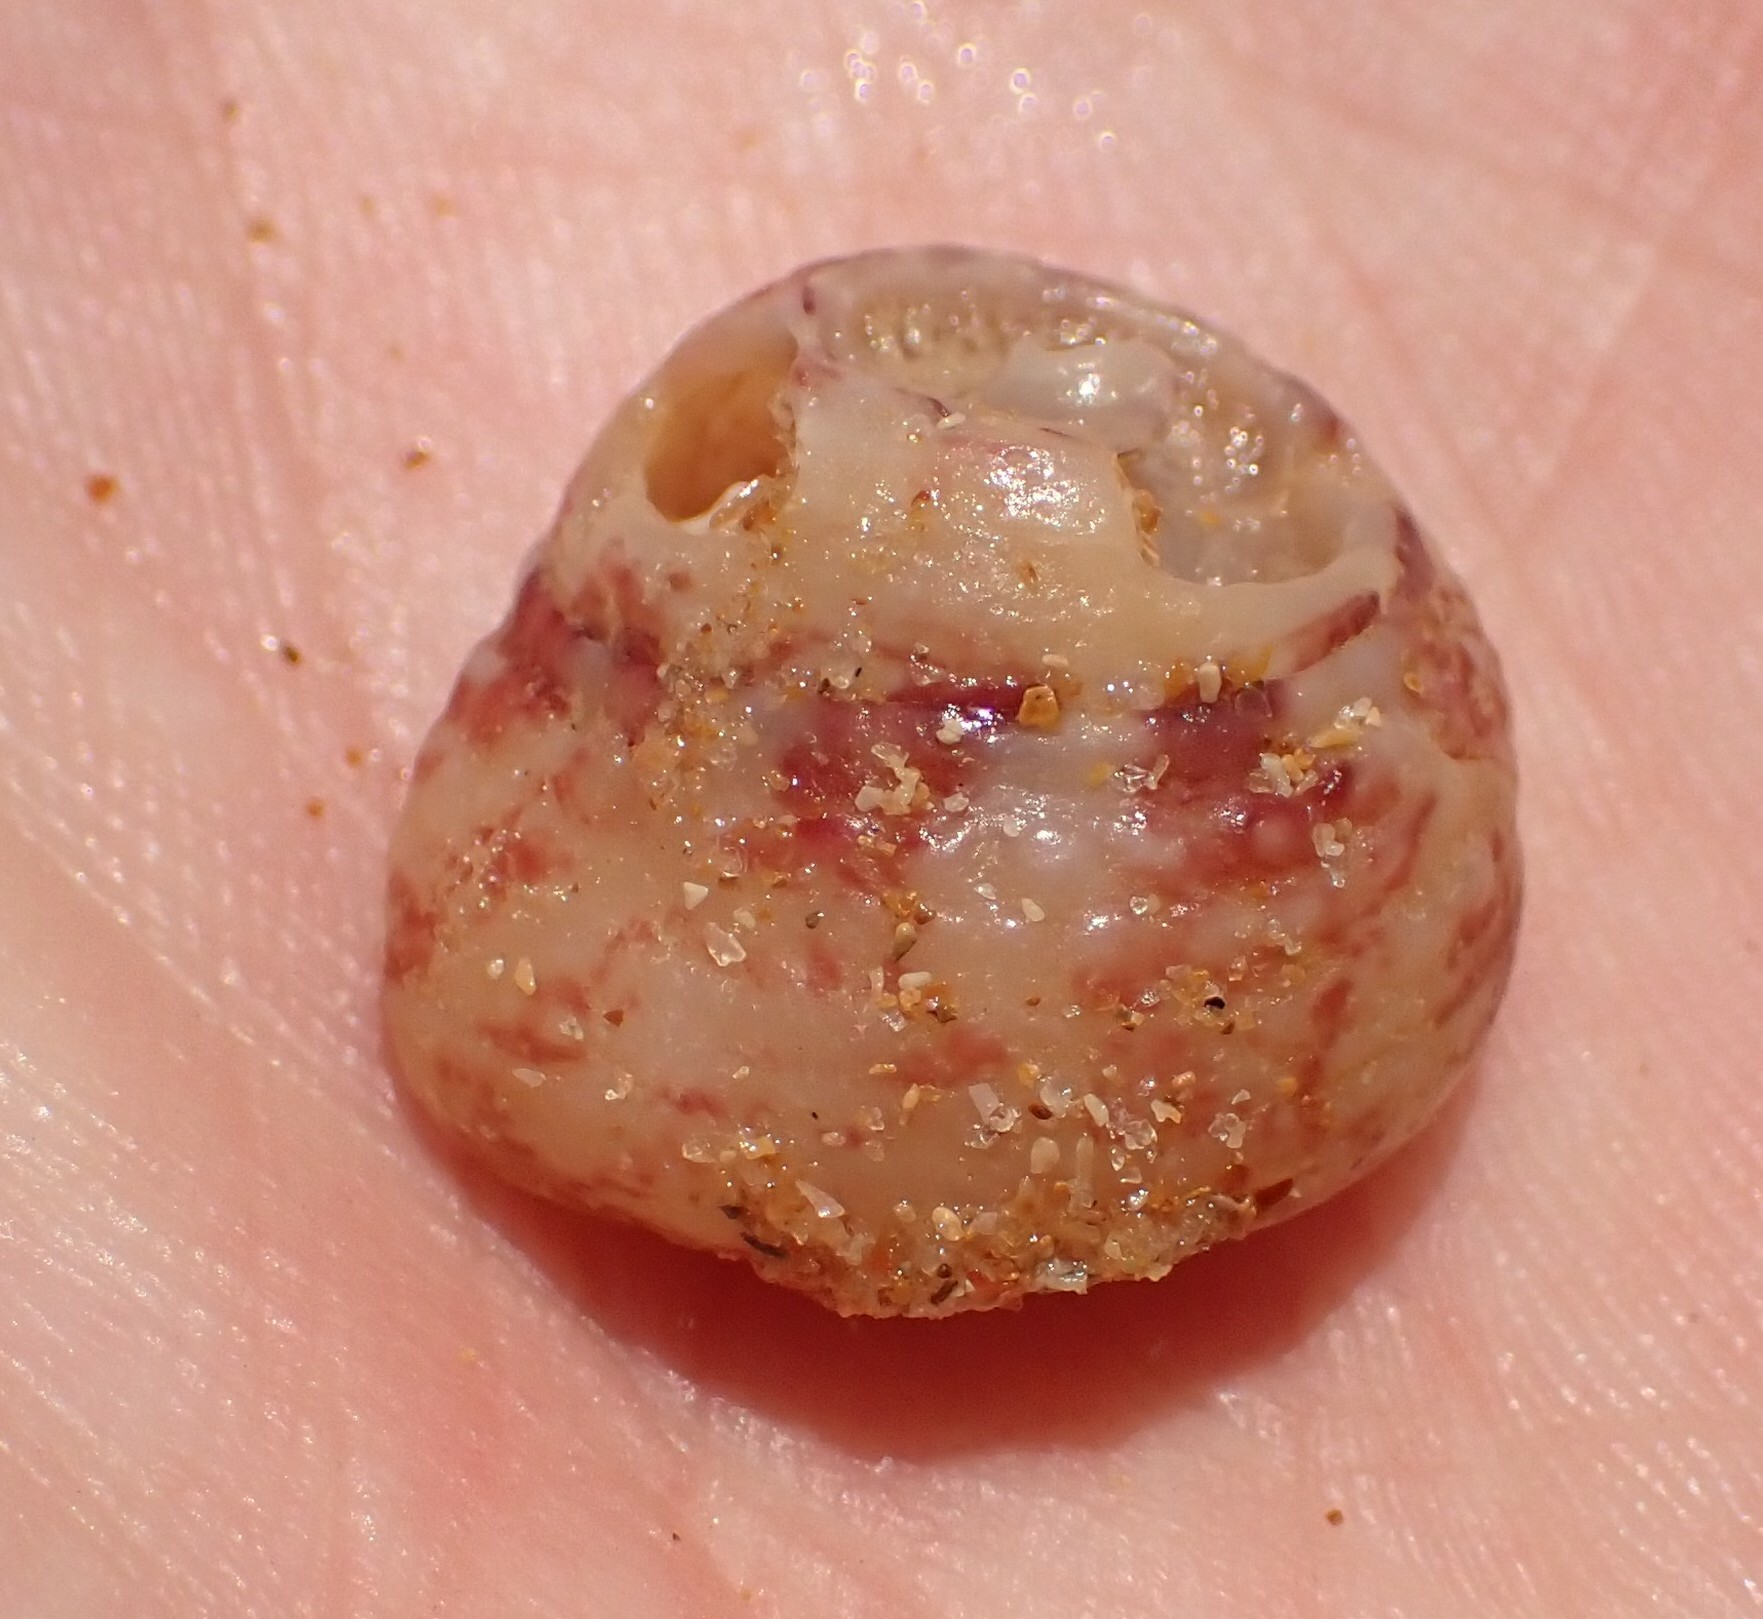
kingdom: Animalia
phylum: Mollusca
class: Gastropoda
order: Trochida
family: Tegulidae
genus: Agathistoma
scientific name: Agathistoma viridulum
